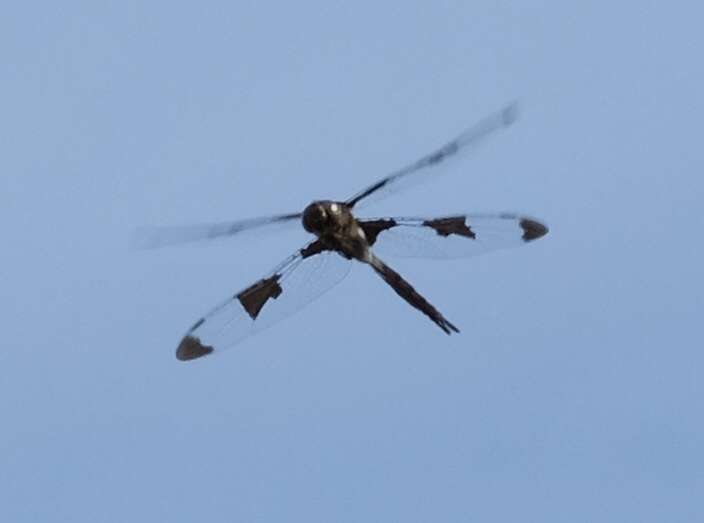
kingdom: Animalia
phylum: Arthropoda
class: Insecta
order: Odonata
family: Corduliidae
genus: Epitheca
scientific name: Epitheca princeps
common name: Prince baskettail
